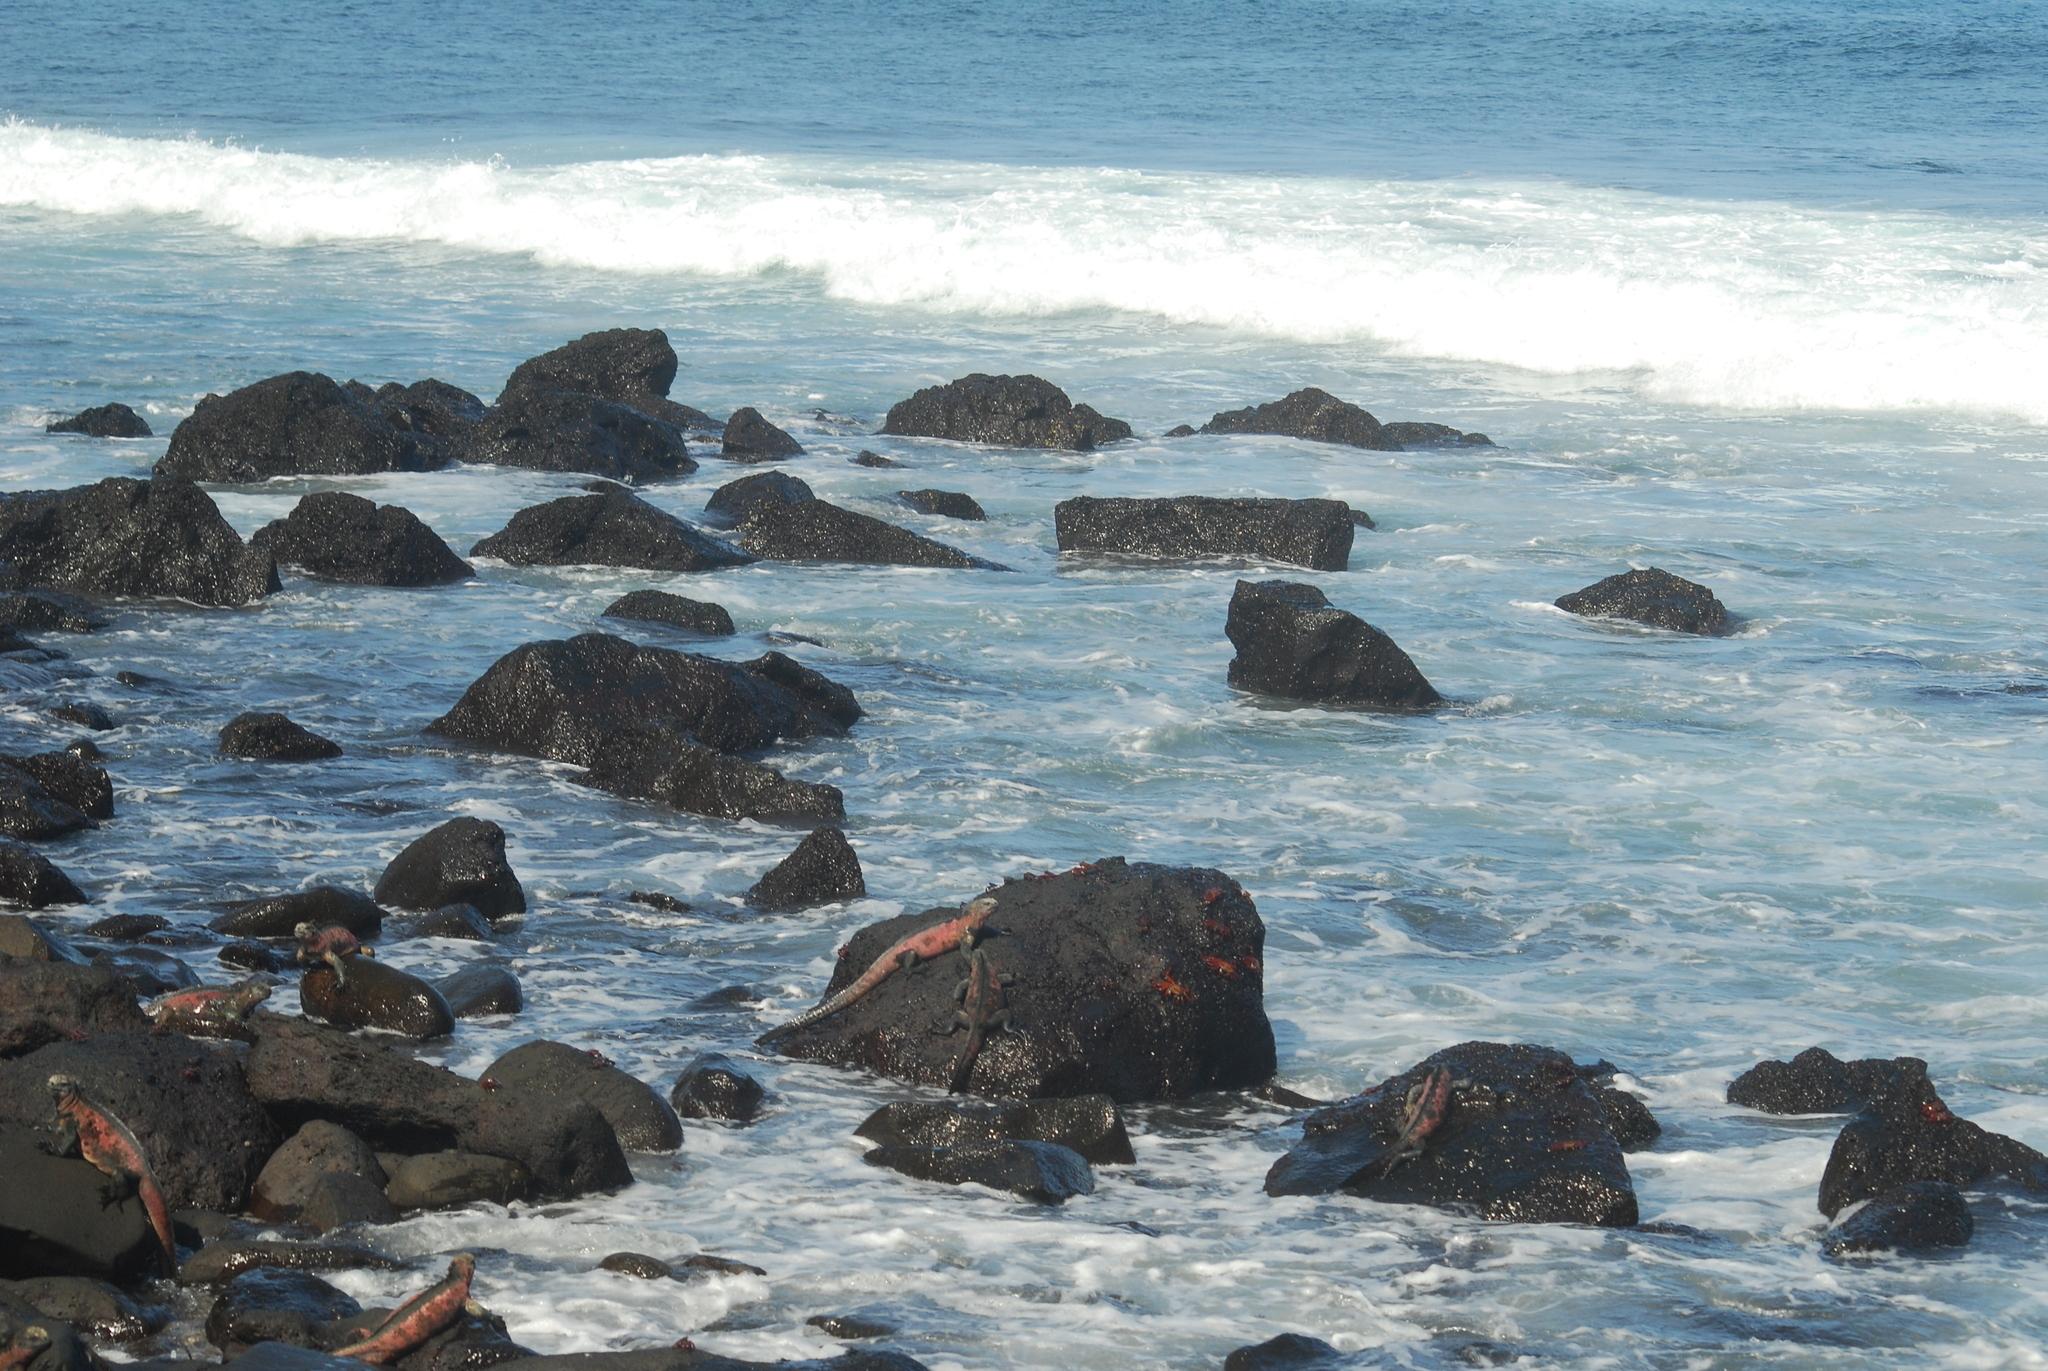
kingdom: Animalia
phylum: Chordata
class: Squamata
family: Iguanidae
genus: Amblyrhynchus
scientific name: Amblyrhynchus cristatus
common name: Marine iguana
